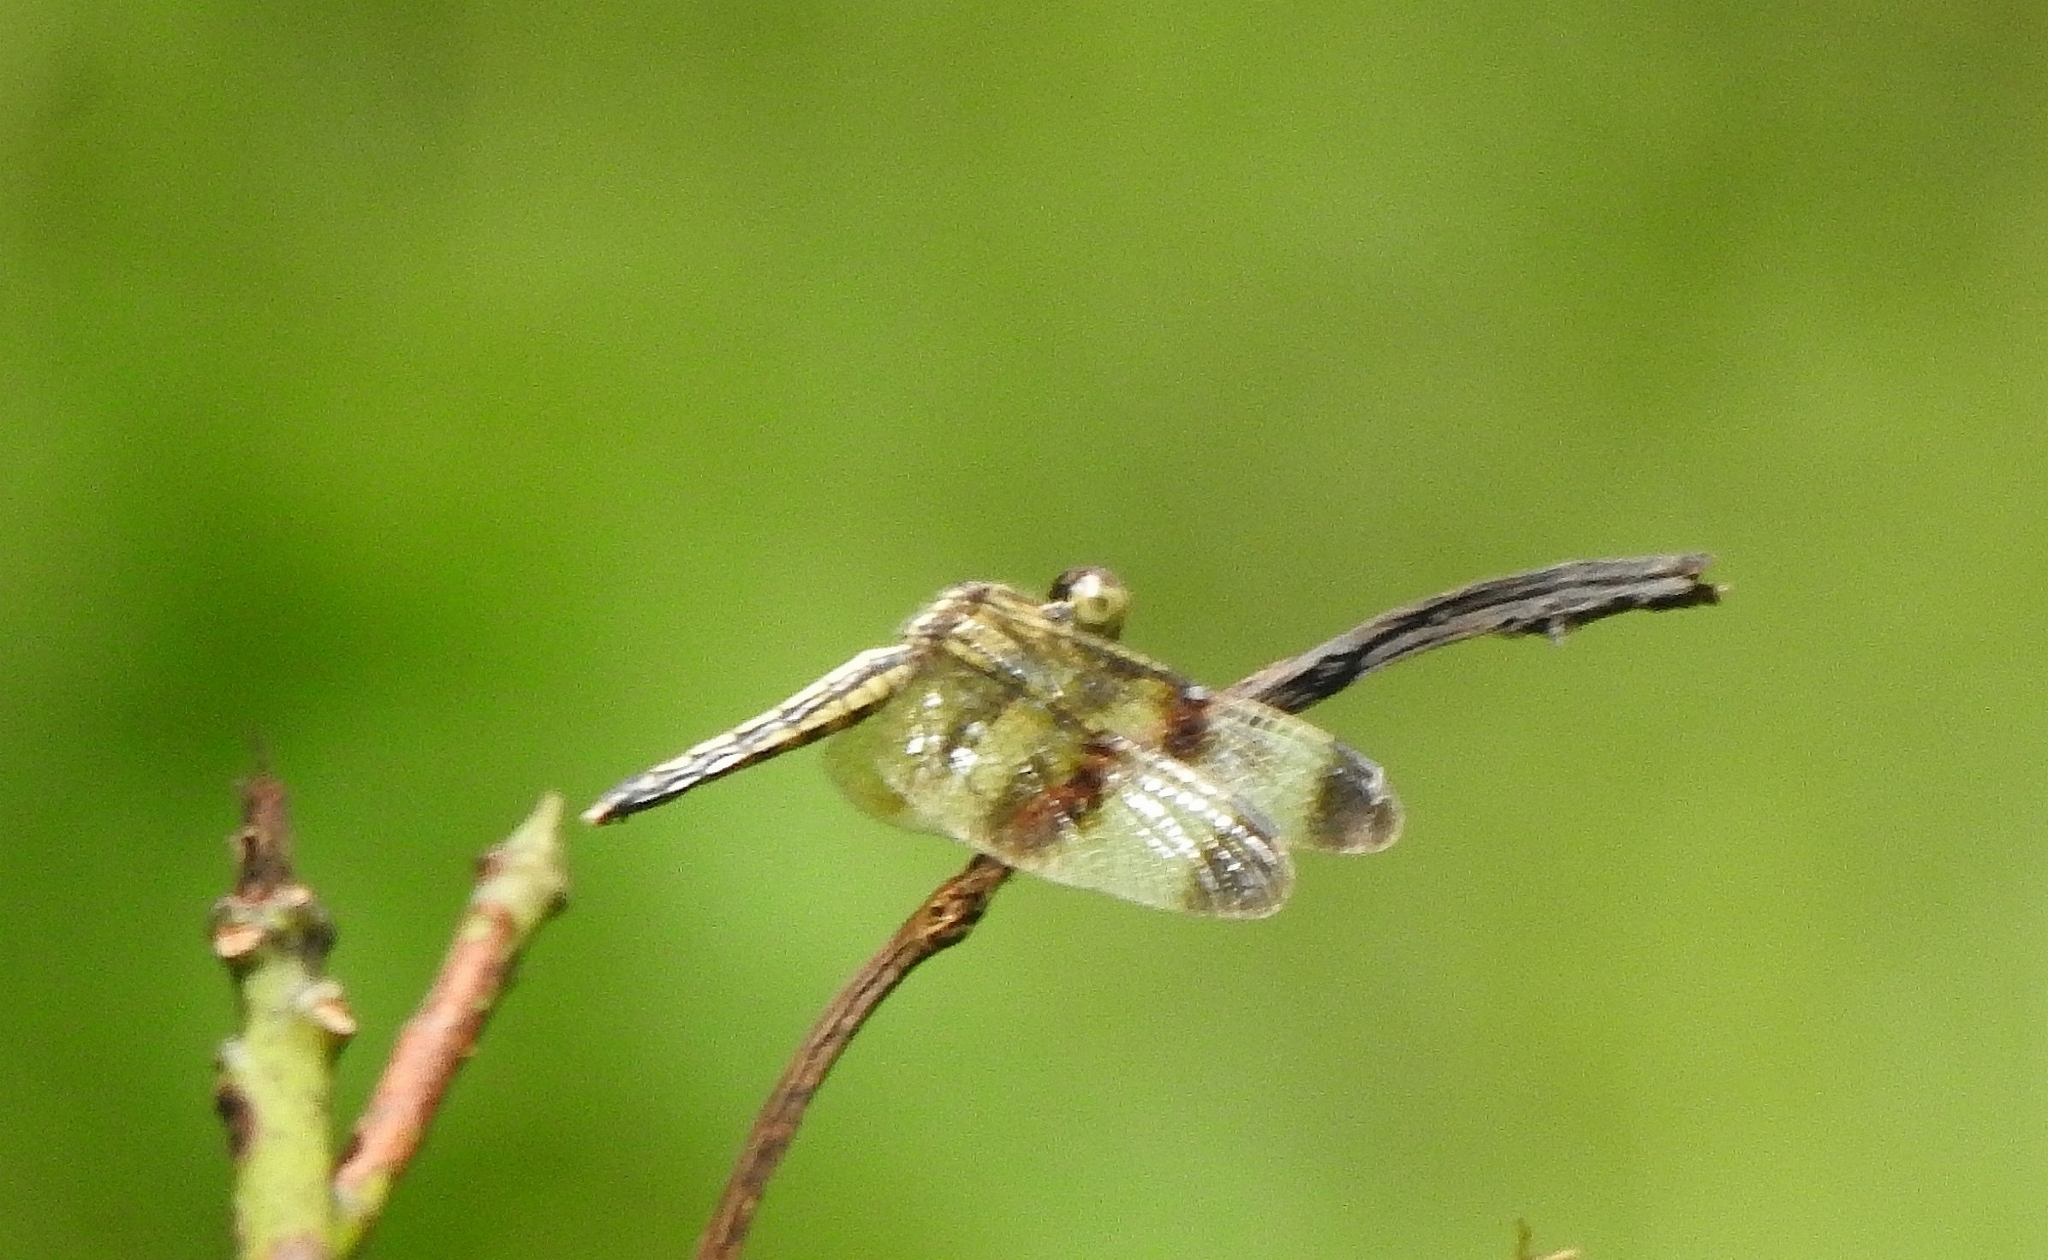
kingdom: Animalia
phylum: Arthropoda
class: Insecta
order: Odonata
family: Libellulidae
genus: Neurothemis
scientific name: Neurothemis tullia
